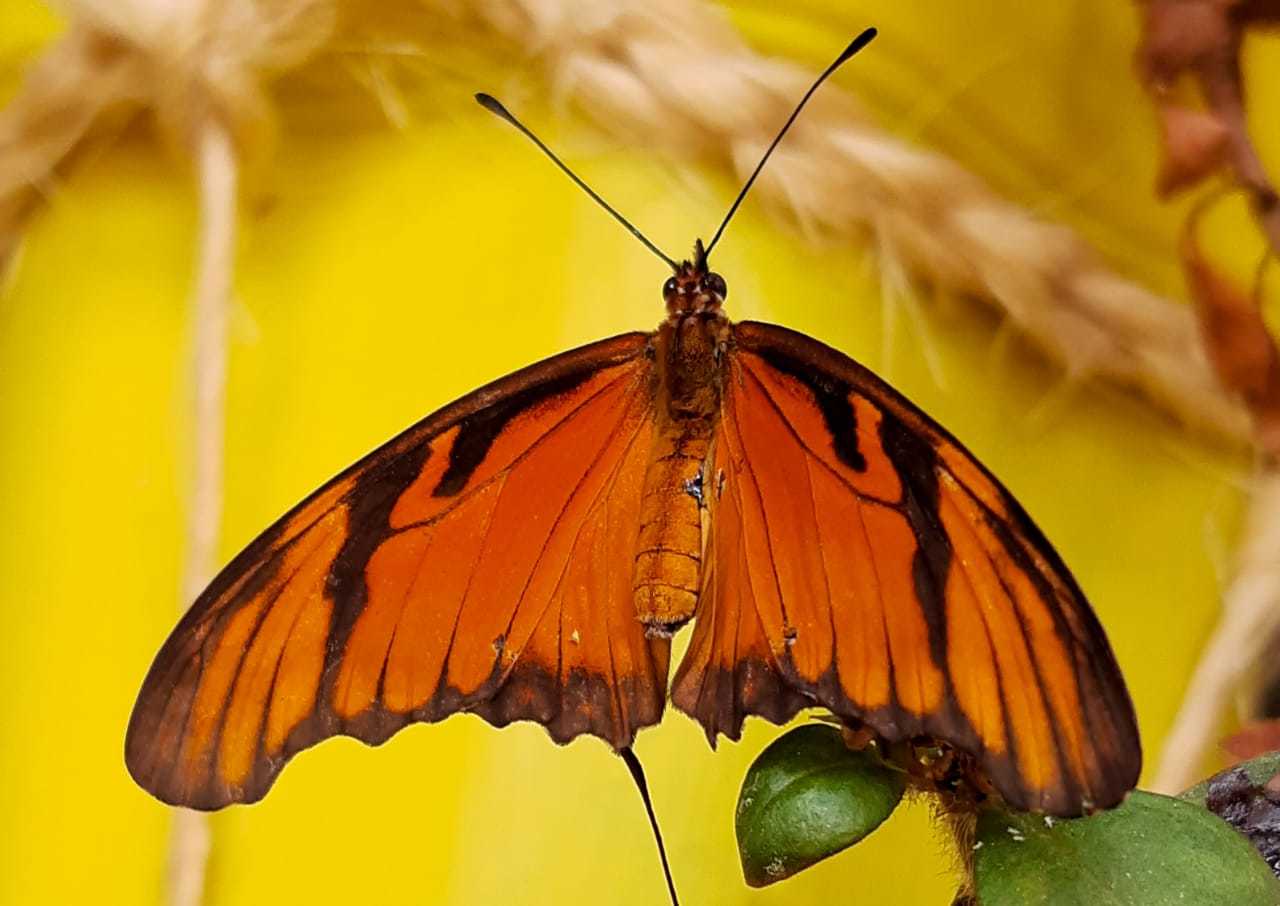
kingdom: Animalia
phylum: Arthropoda
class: Insecta
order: Lepidoptera
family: Nymphalidae
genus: Dione
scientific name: Dione juno
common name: Juno silverspot
